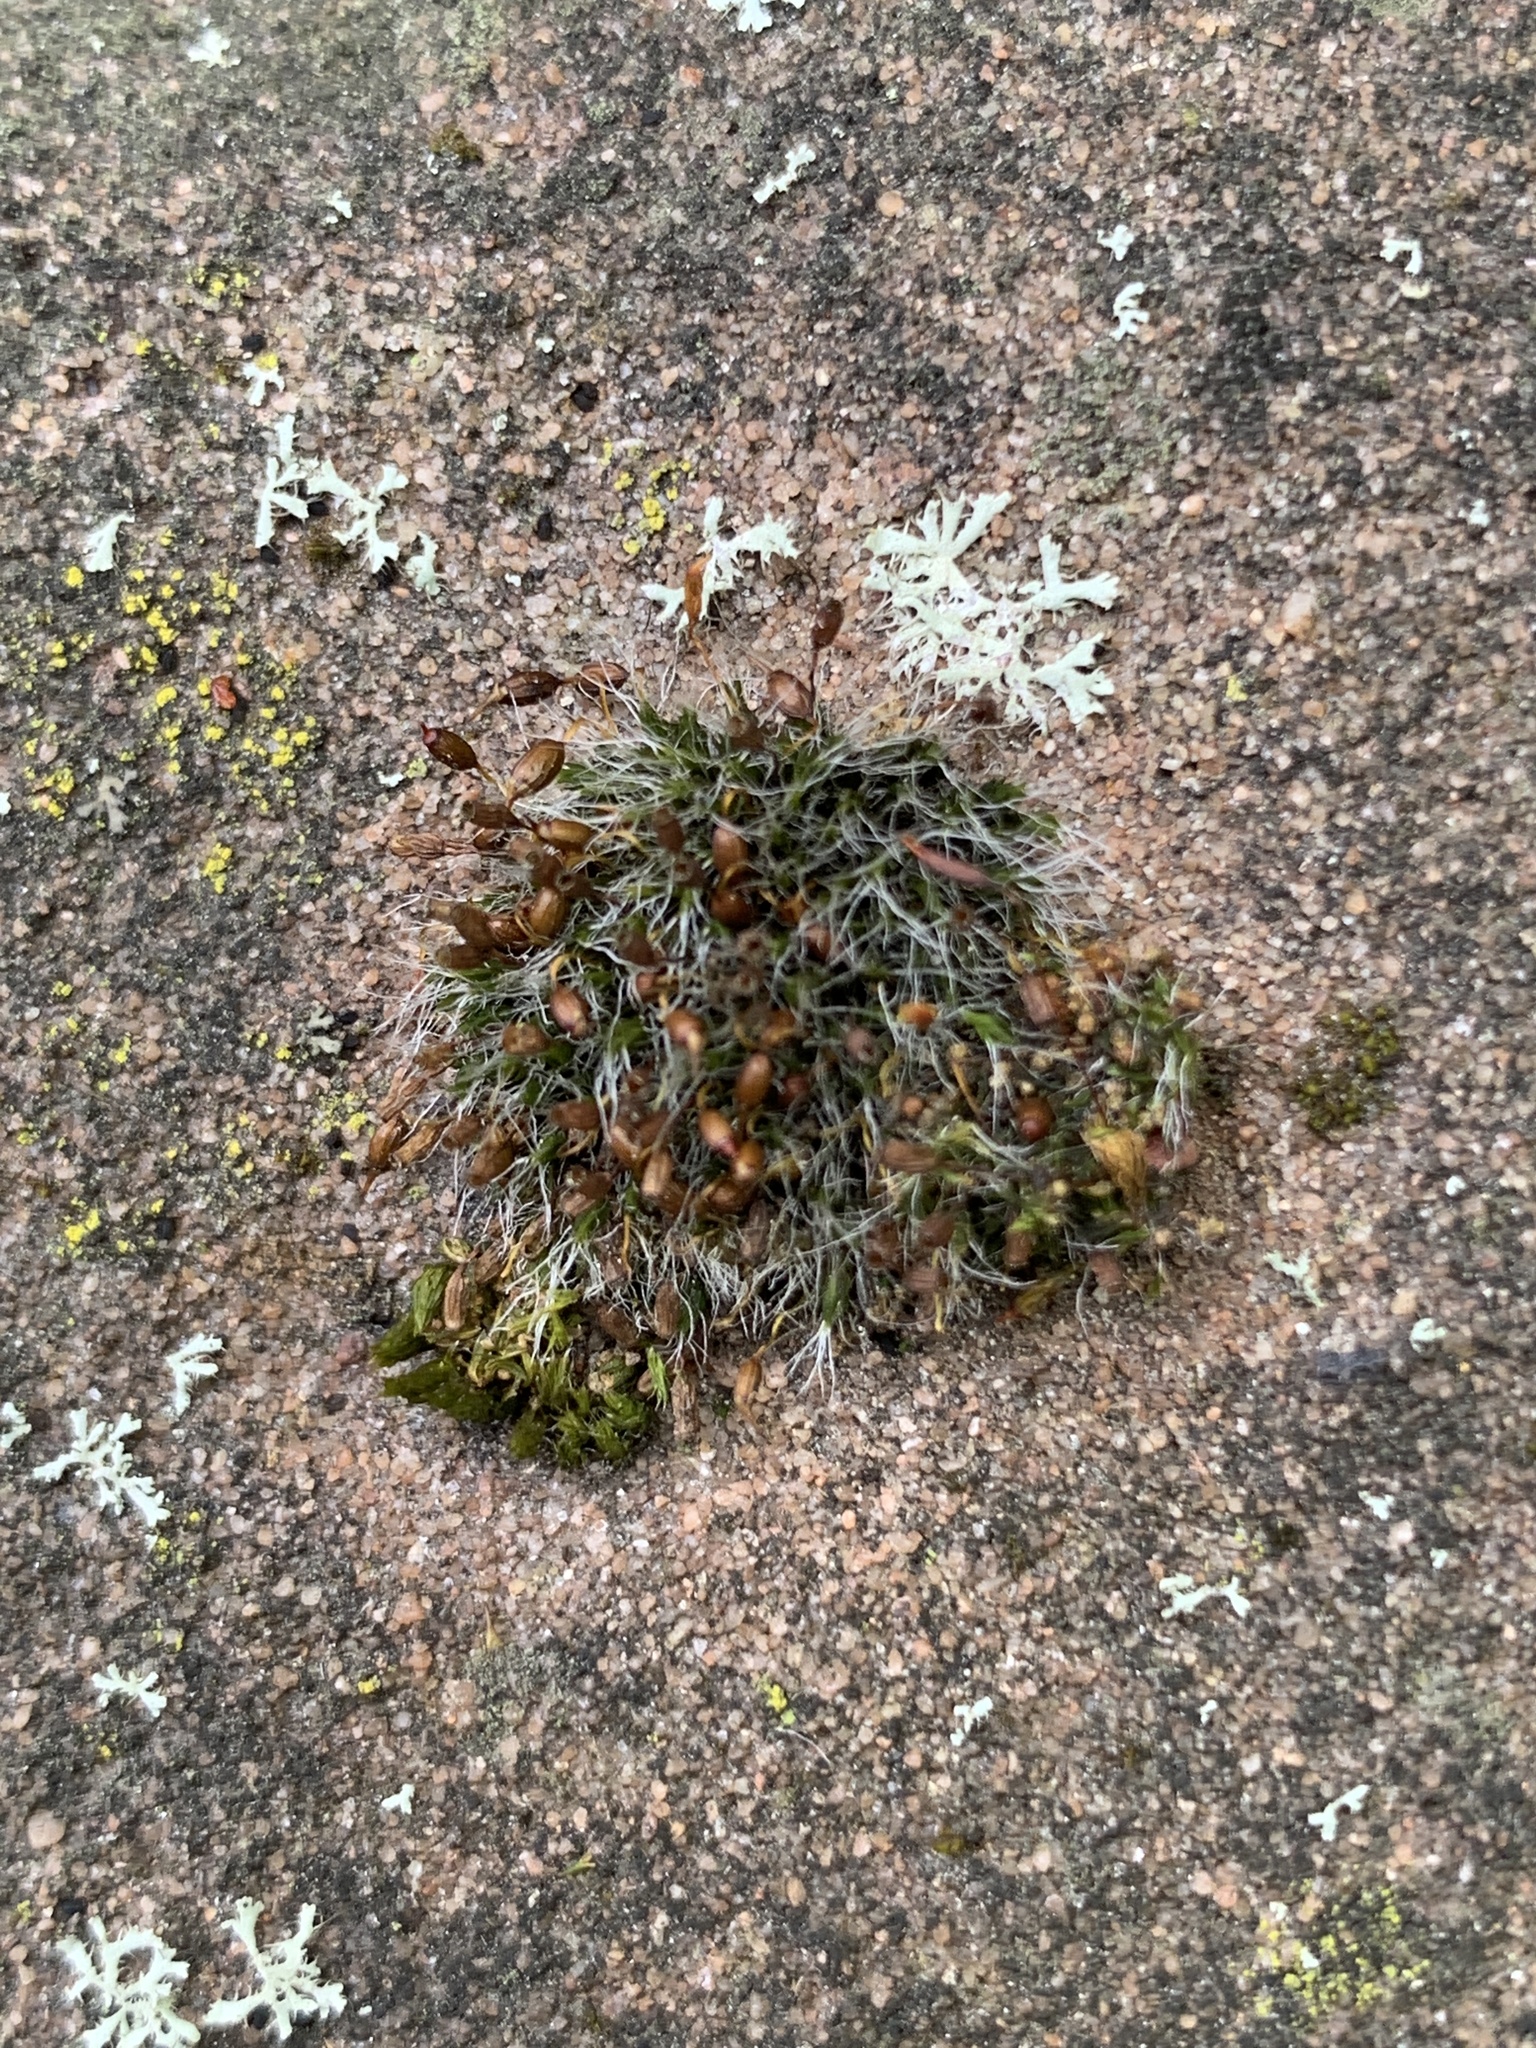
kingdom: Plantae
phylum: Bryophyta
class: Bryopsida
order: Grimmiales
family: Grimmiaceae
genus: Grimmia
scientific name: Grimmia pulvinata
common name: Grey-cushioned grimmia
